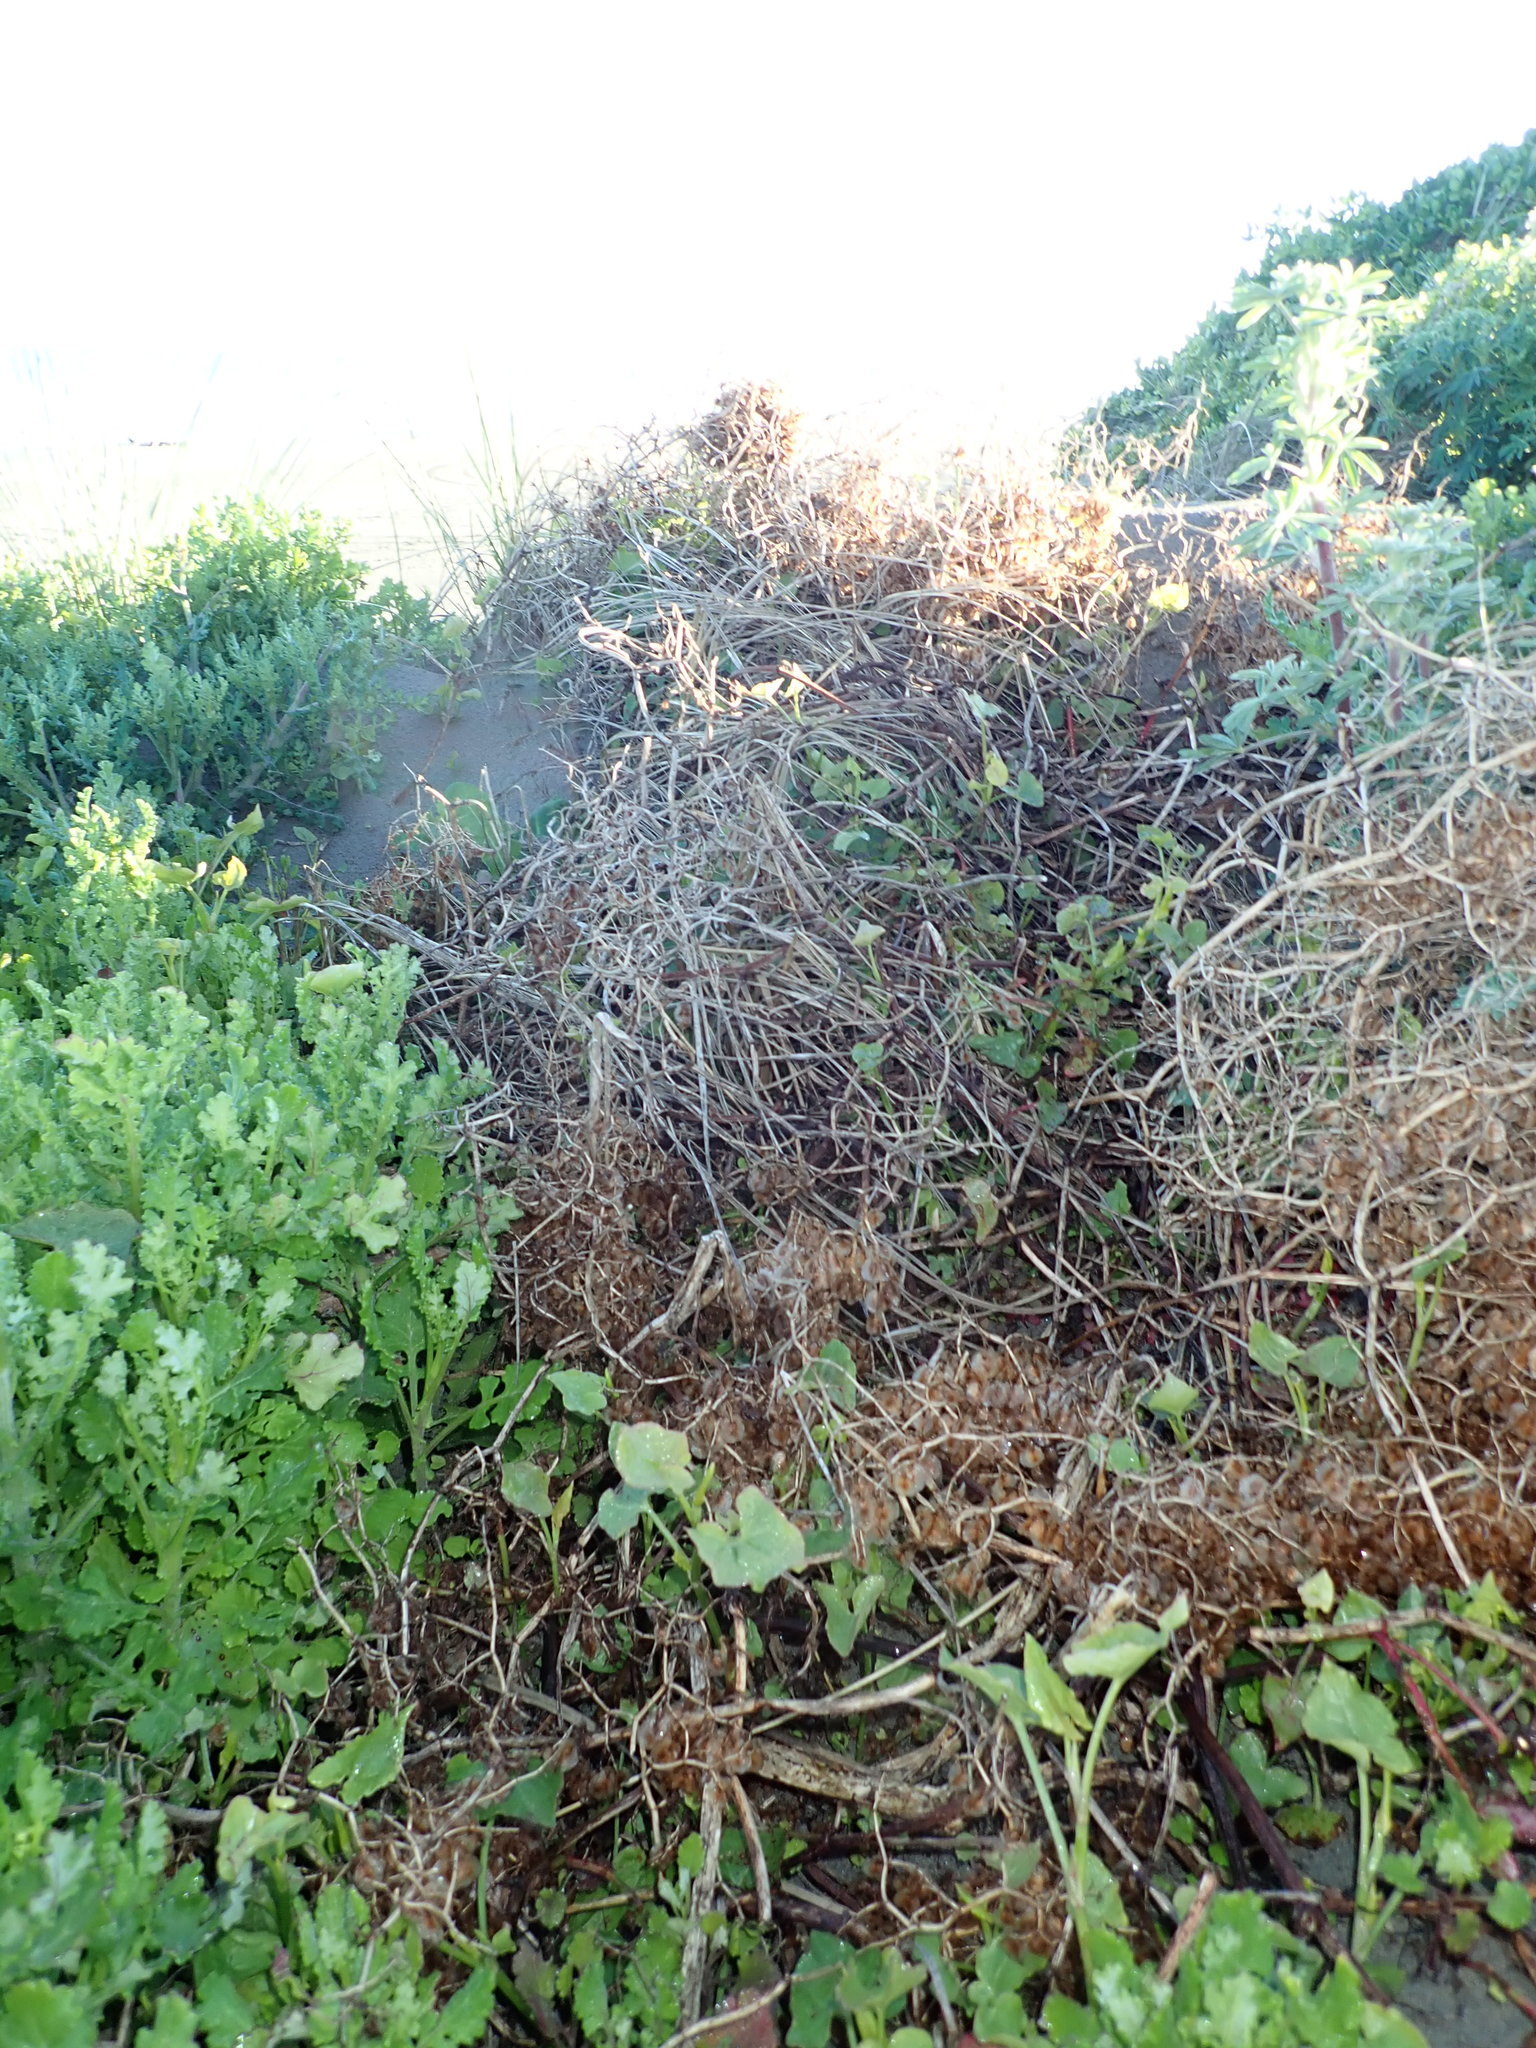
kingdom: Plantae
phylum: Tracheophyta
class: Magnoliopsida
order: Caryophyllales
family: Polygonaceae
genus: Rumex
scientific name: Rumex sagittatus
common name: Climbing dock
